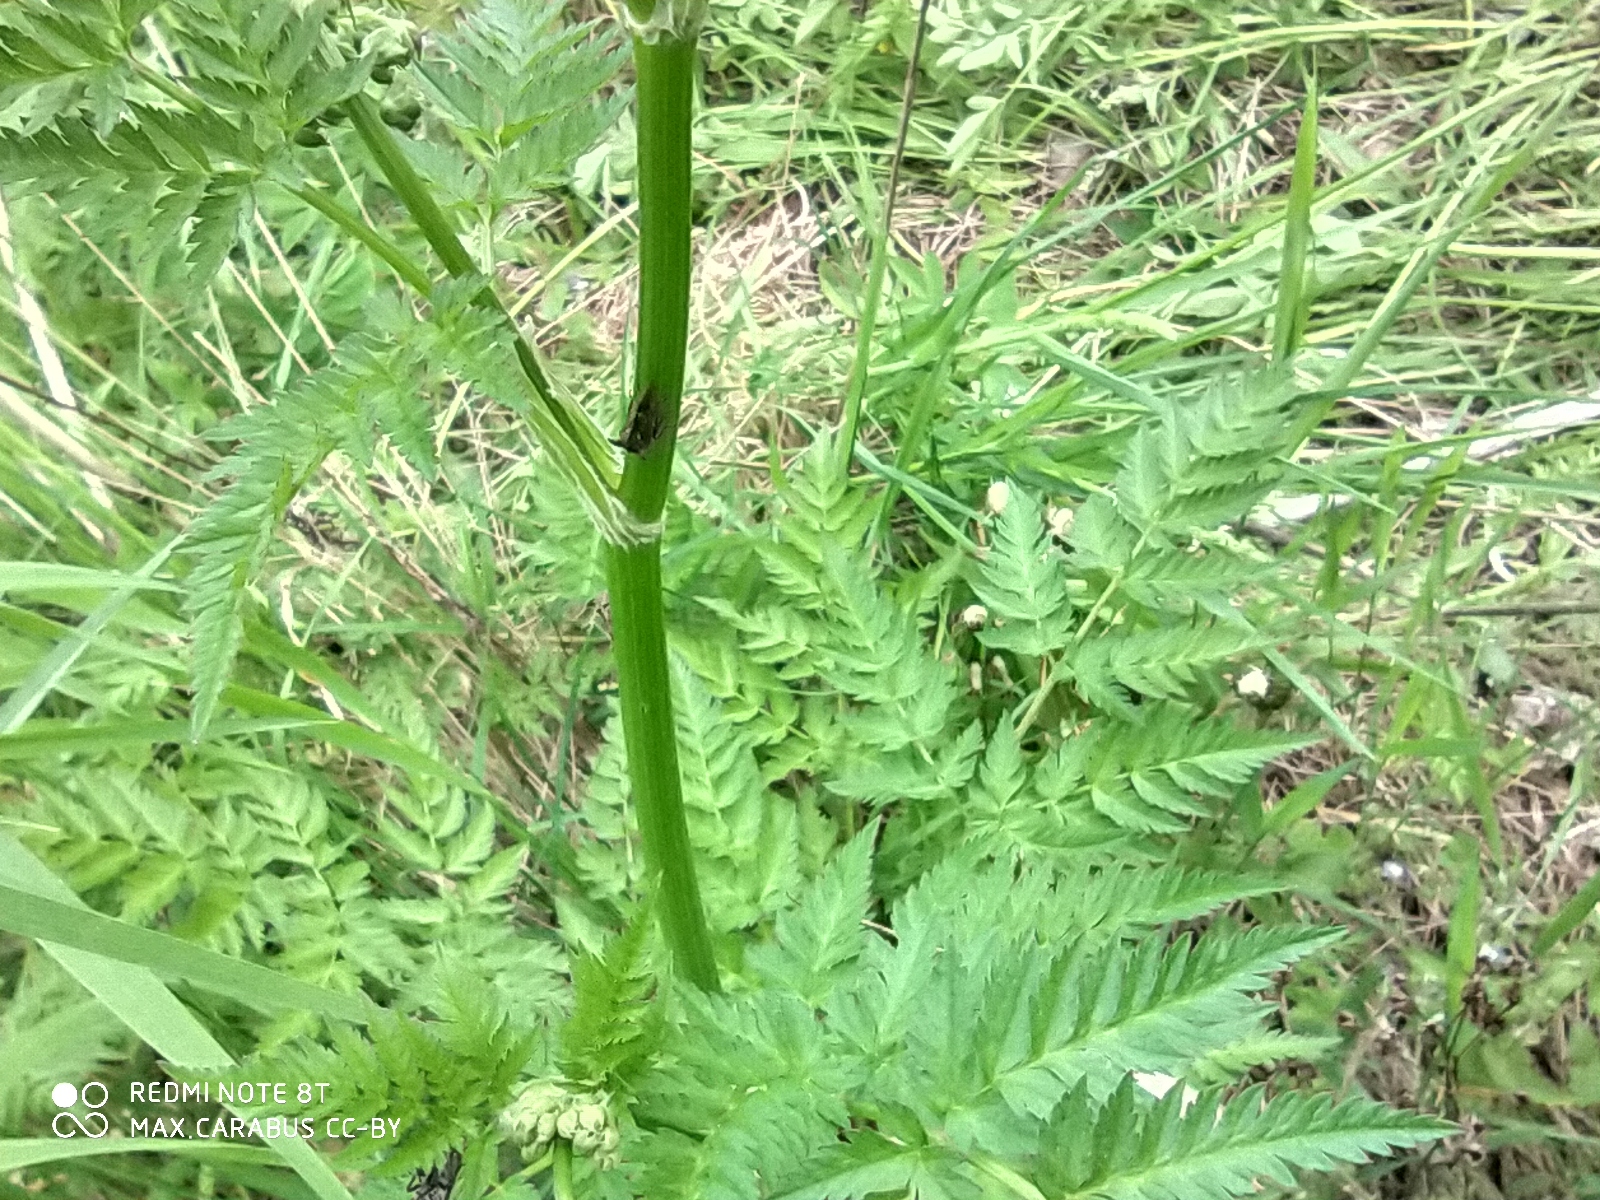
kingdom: Plantae
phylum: Tracheophyta
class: Magnoliopsida
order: Apiales
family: Apiaceae
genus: Anthriscus
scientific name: Anthriscus sylvestris
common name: Cow parsley
